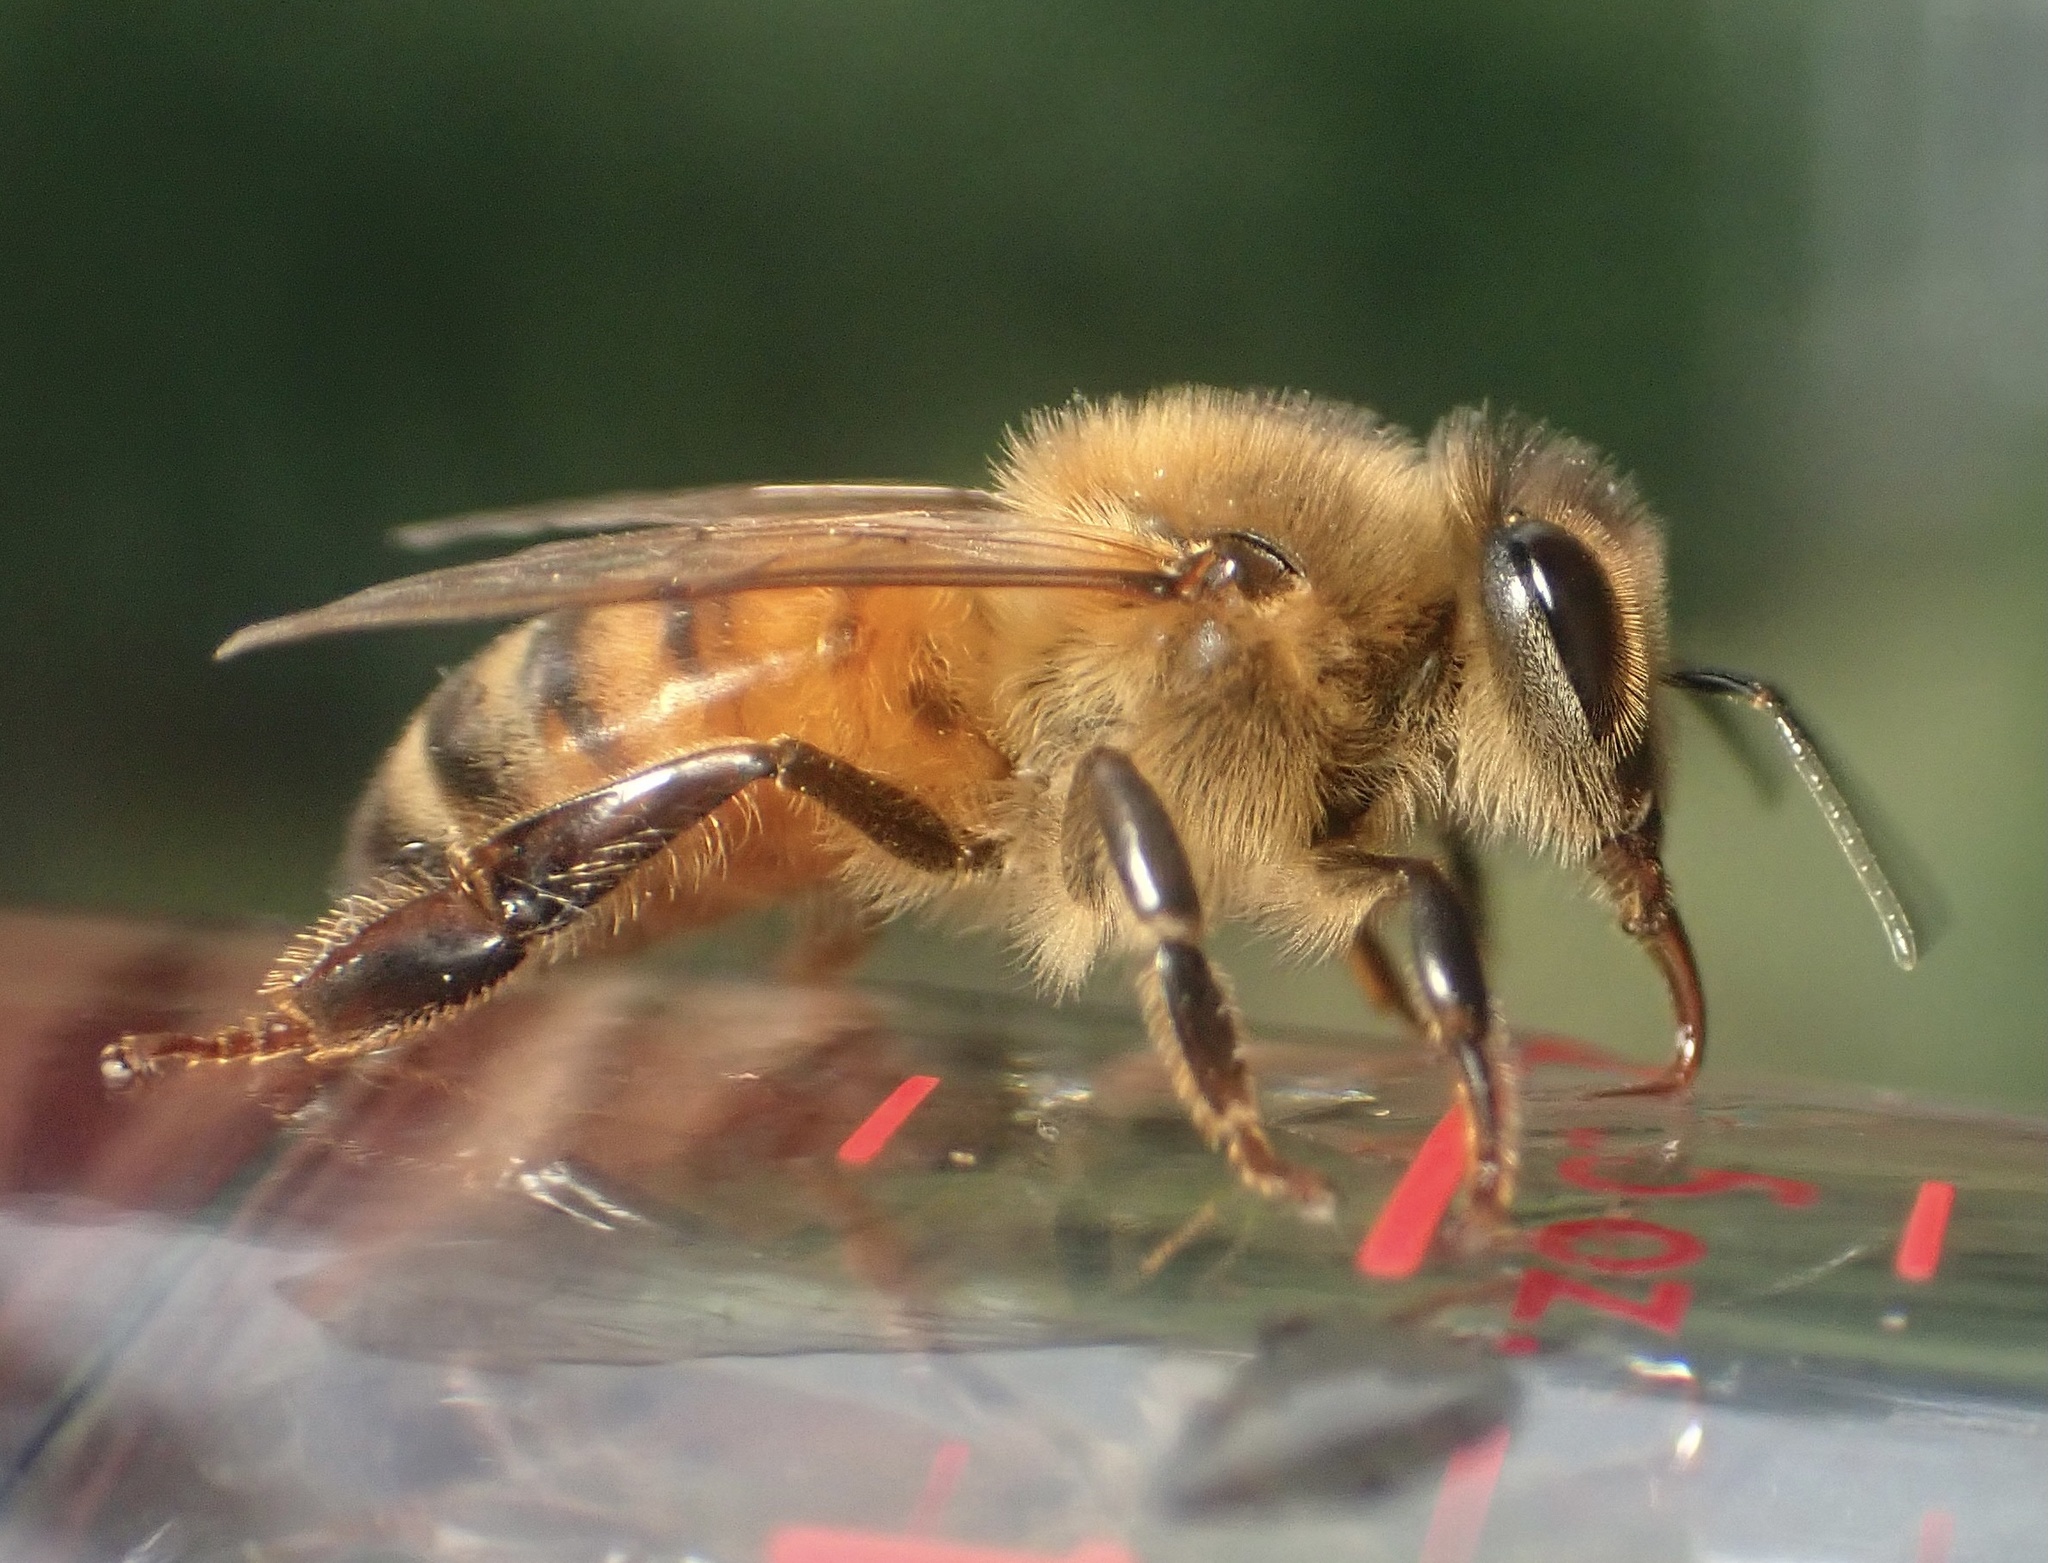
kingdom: Animalia
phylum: Arthropoda
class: Insecta
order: Hymenoptera
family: Apidae
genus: Apis
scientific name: Apis mellifera
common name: Honey bee
